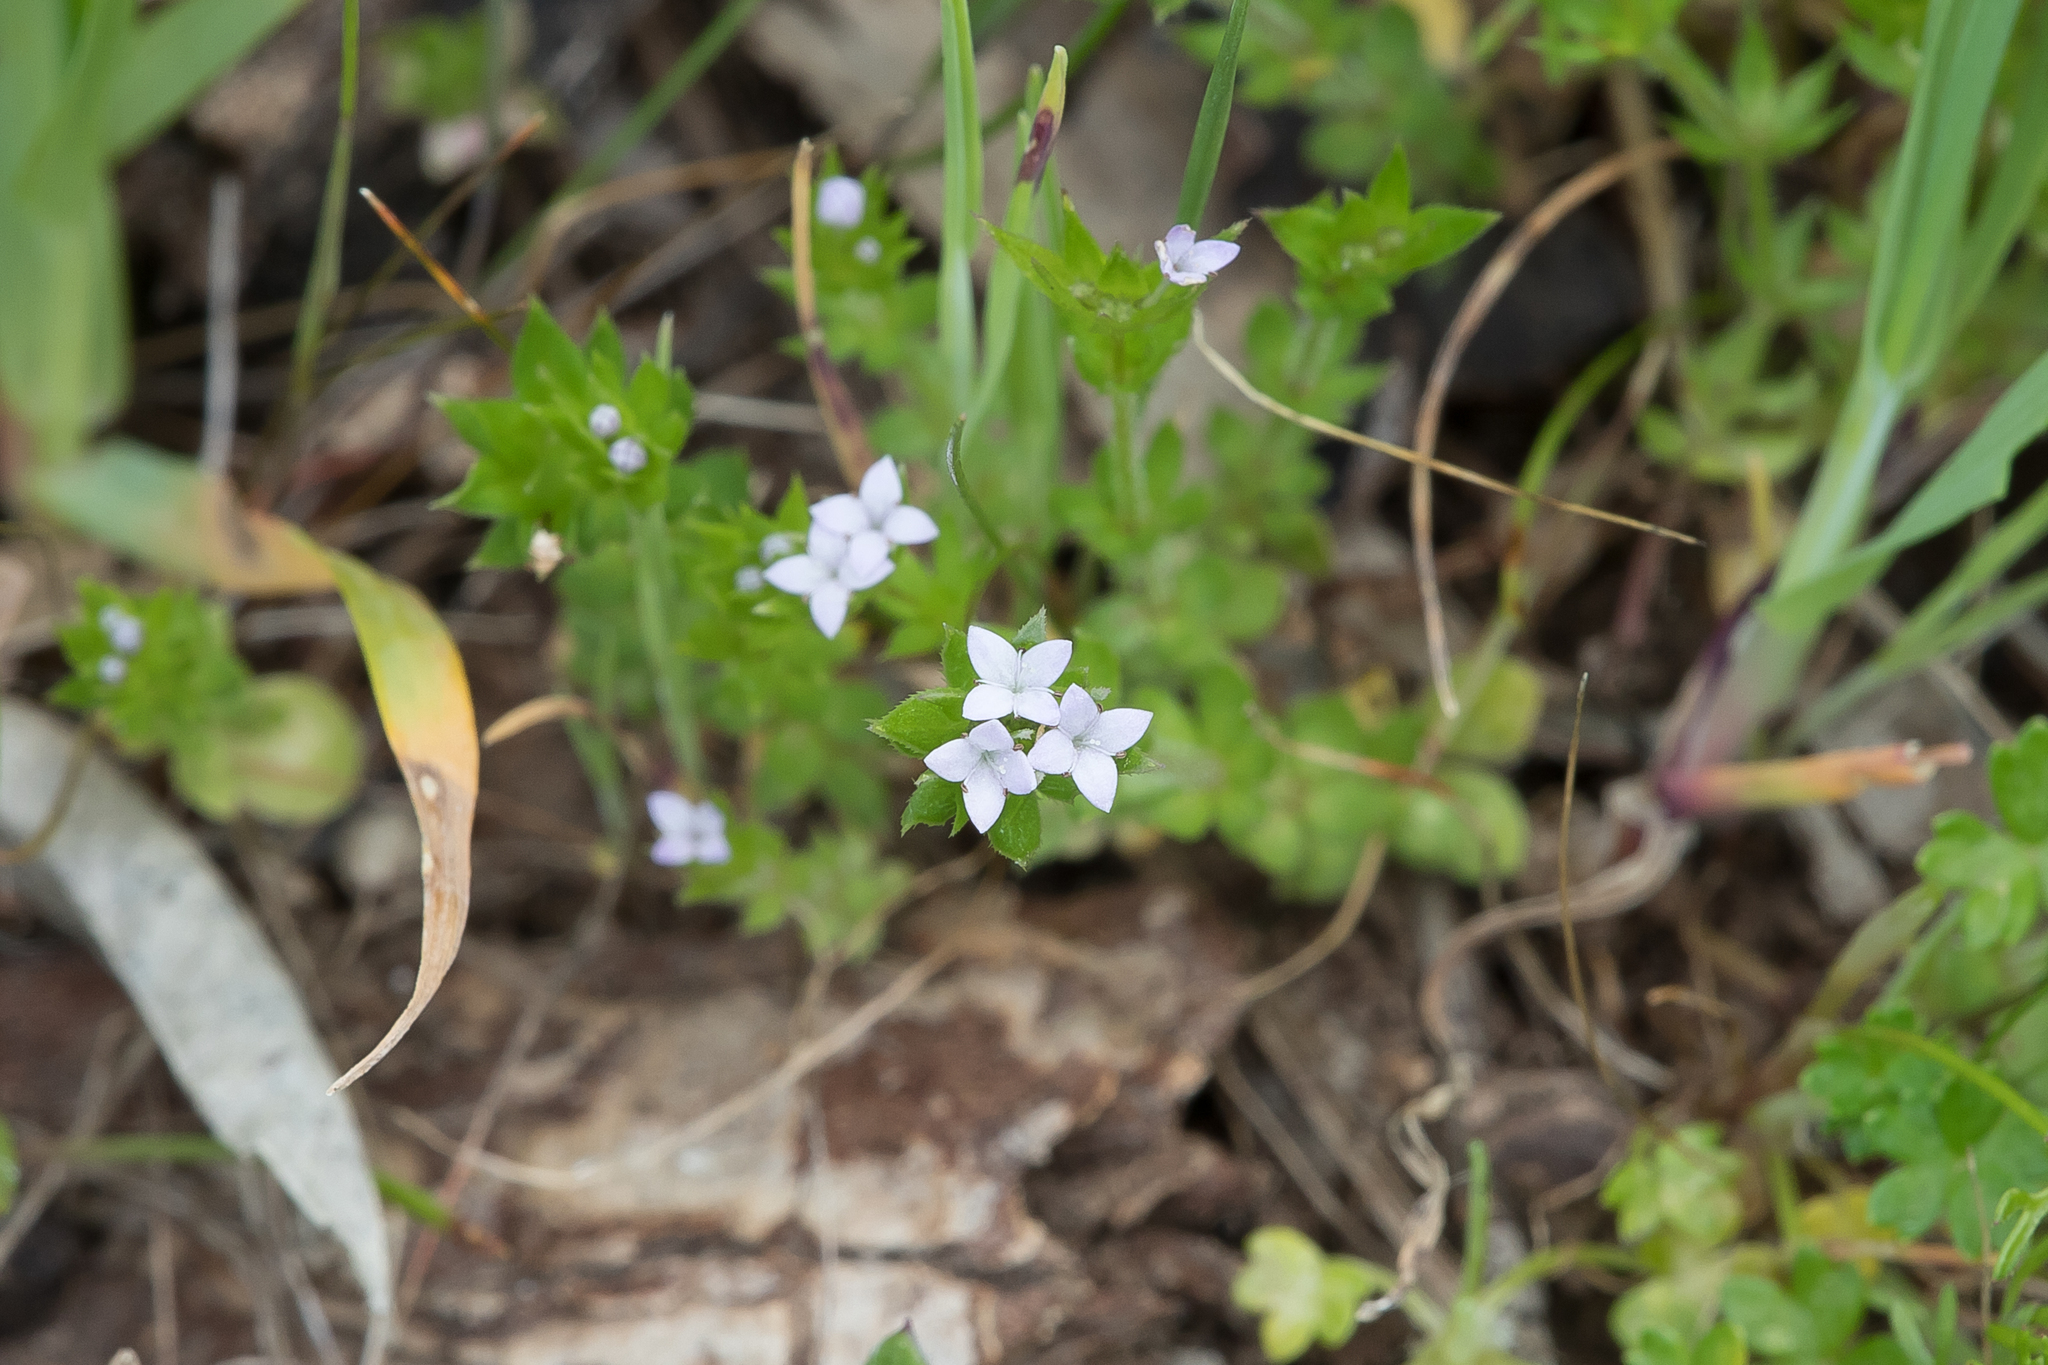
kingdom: Plantae
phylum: Tracheophyta
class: Magnoliopsida
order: Gentianales
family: Rubiaceae
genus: Sherardia
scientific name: Sherardia arvensis
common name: Field madder
